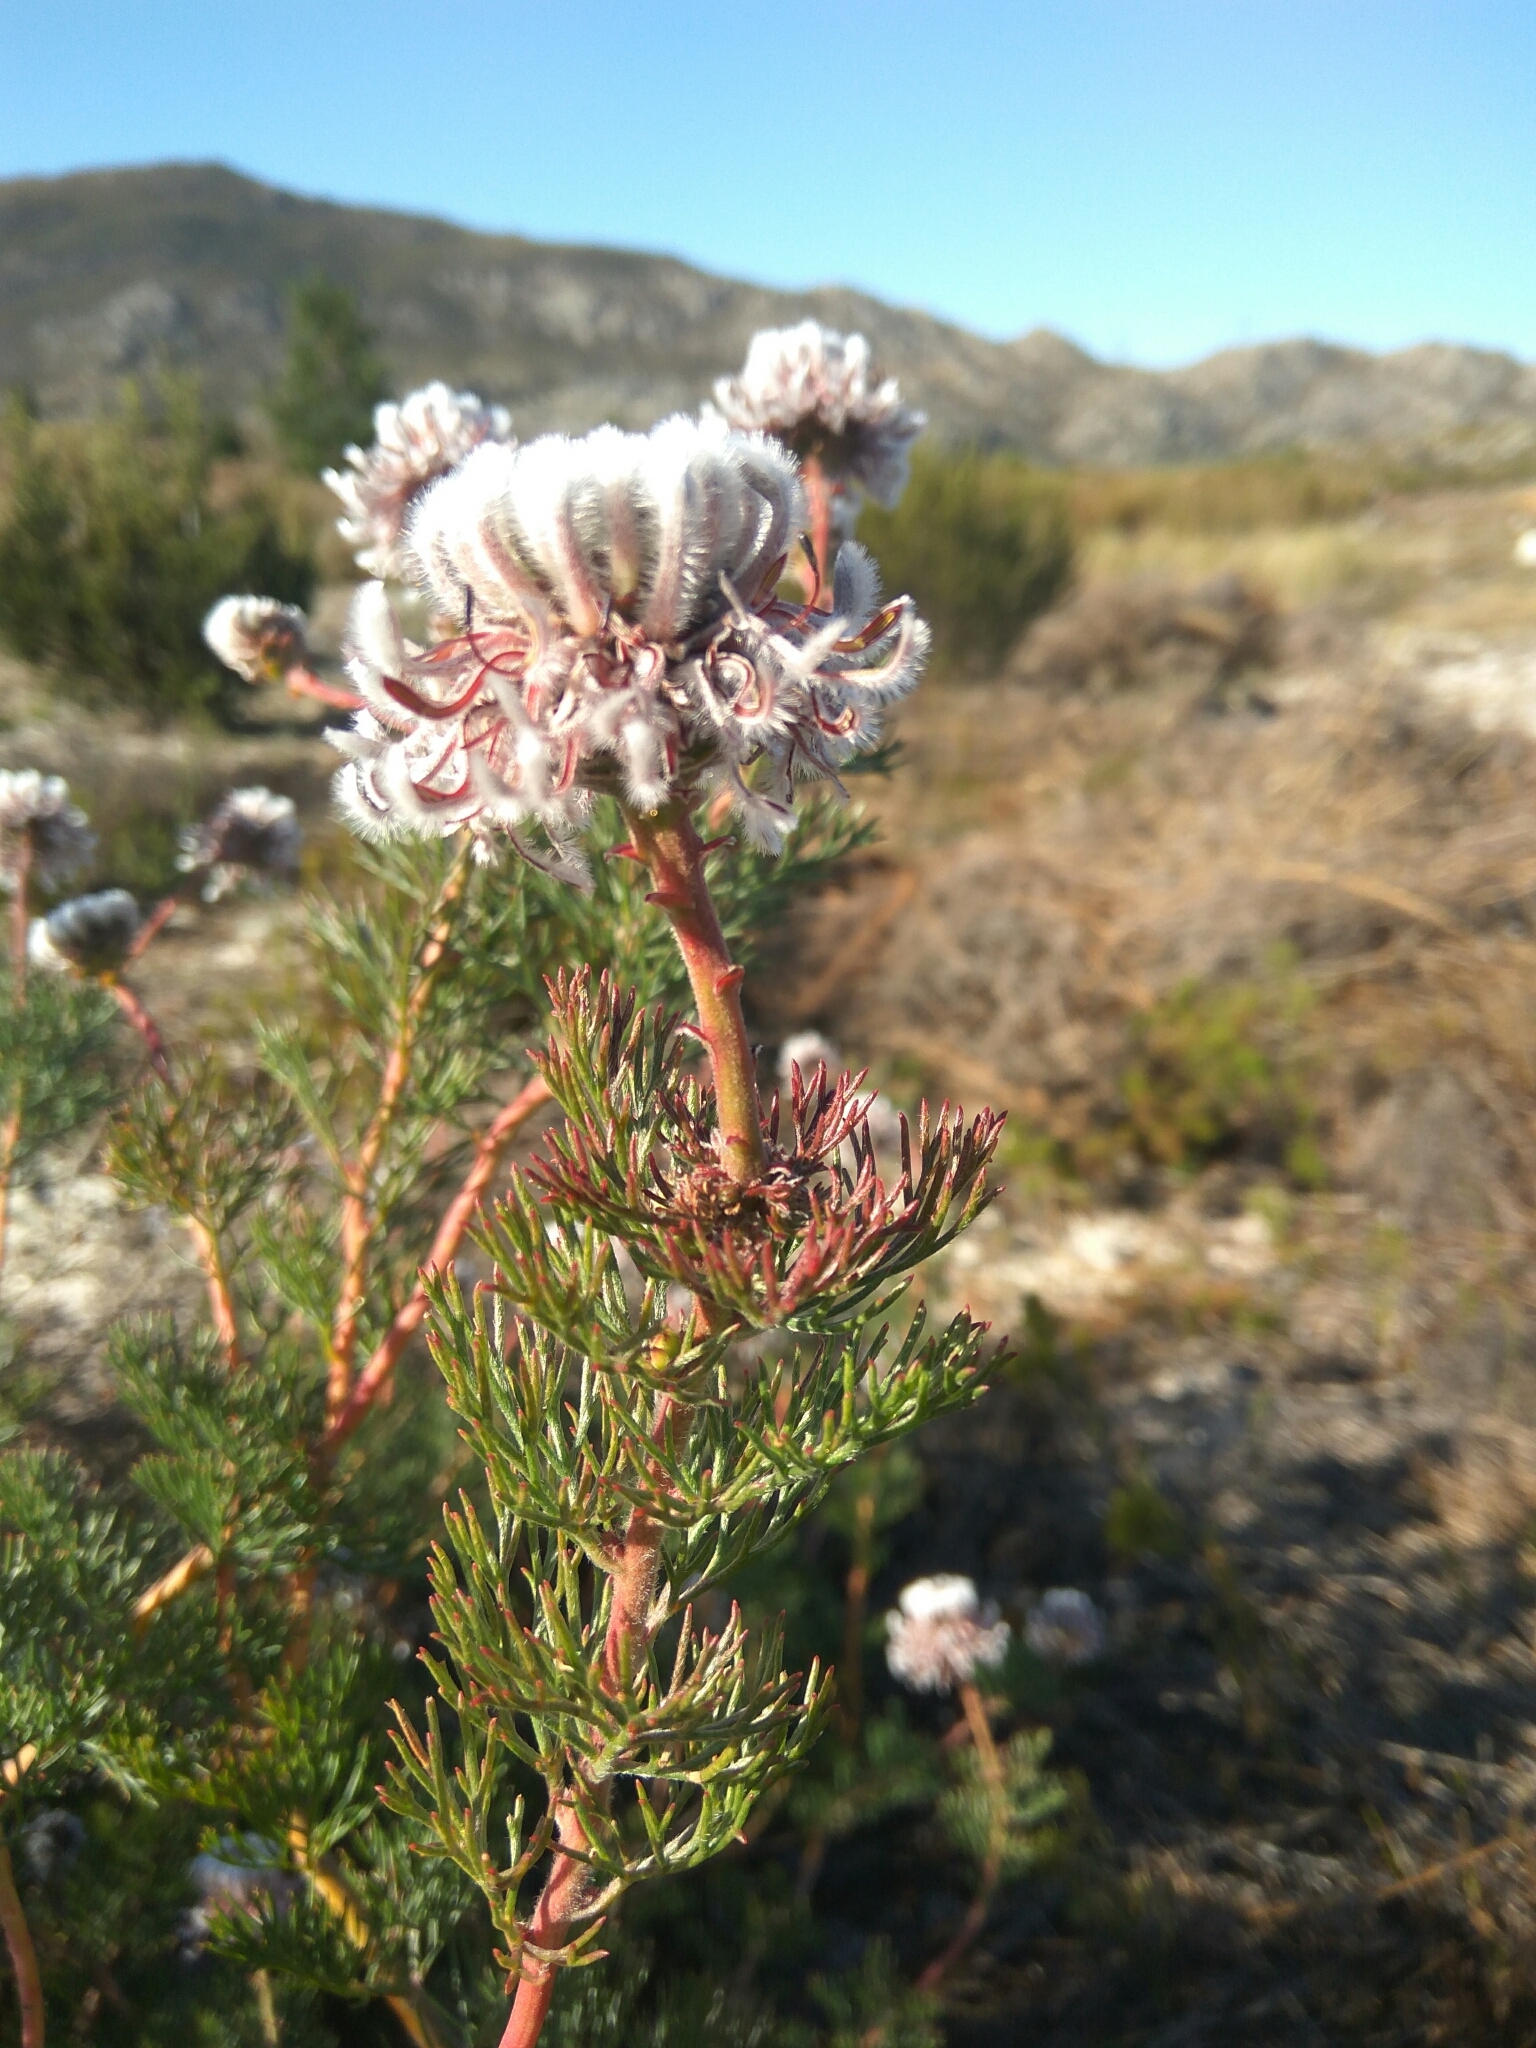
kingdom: Plantae
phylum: Tracheophyta
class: Magnoliopsida
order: Proteales
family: Proteaceae
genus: Serruria
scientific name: Serruria pedunculata
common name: Fan-leaf spiderhead
